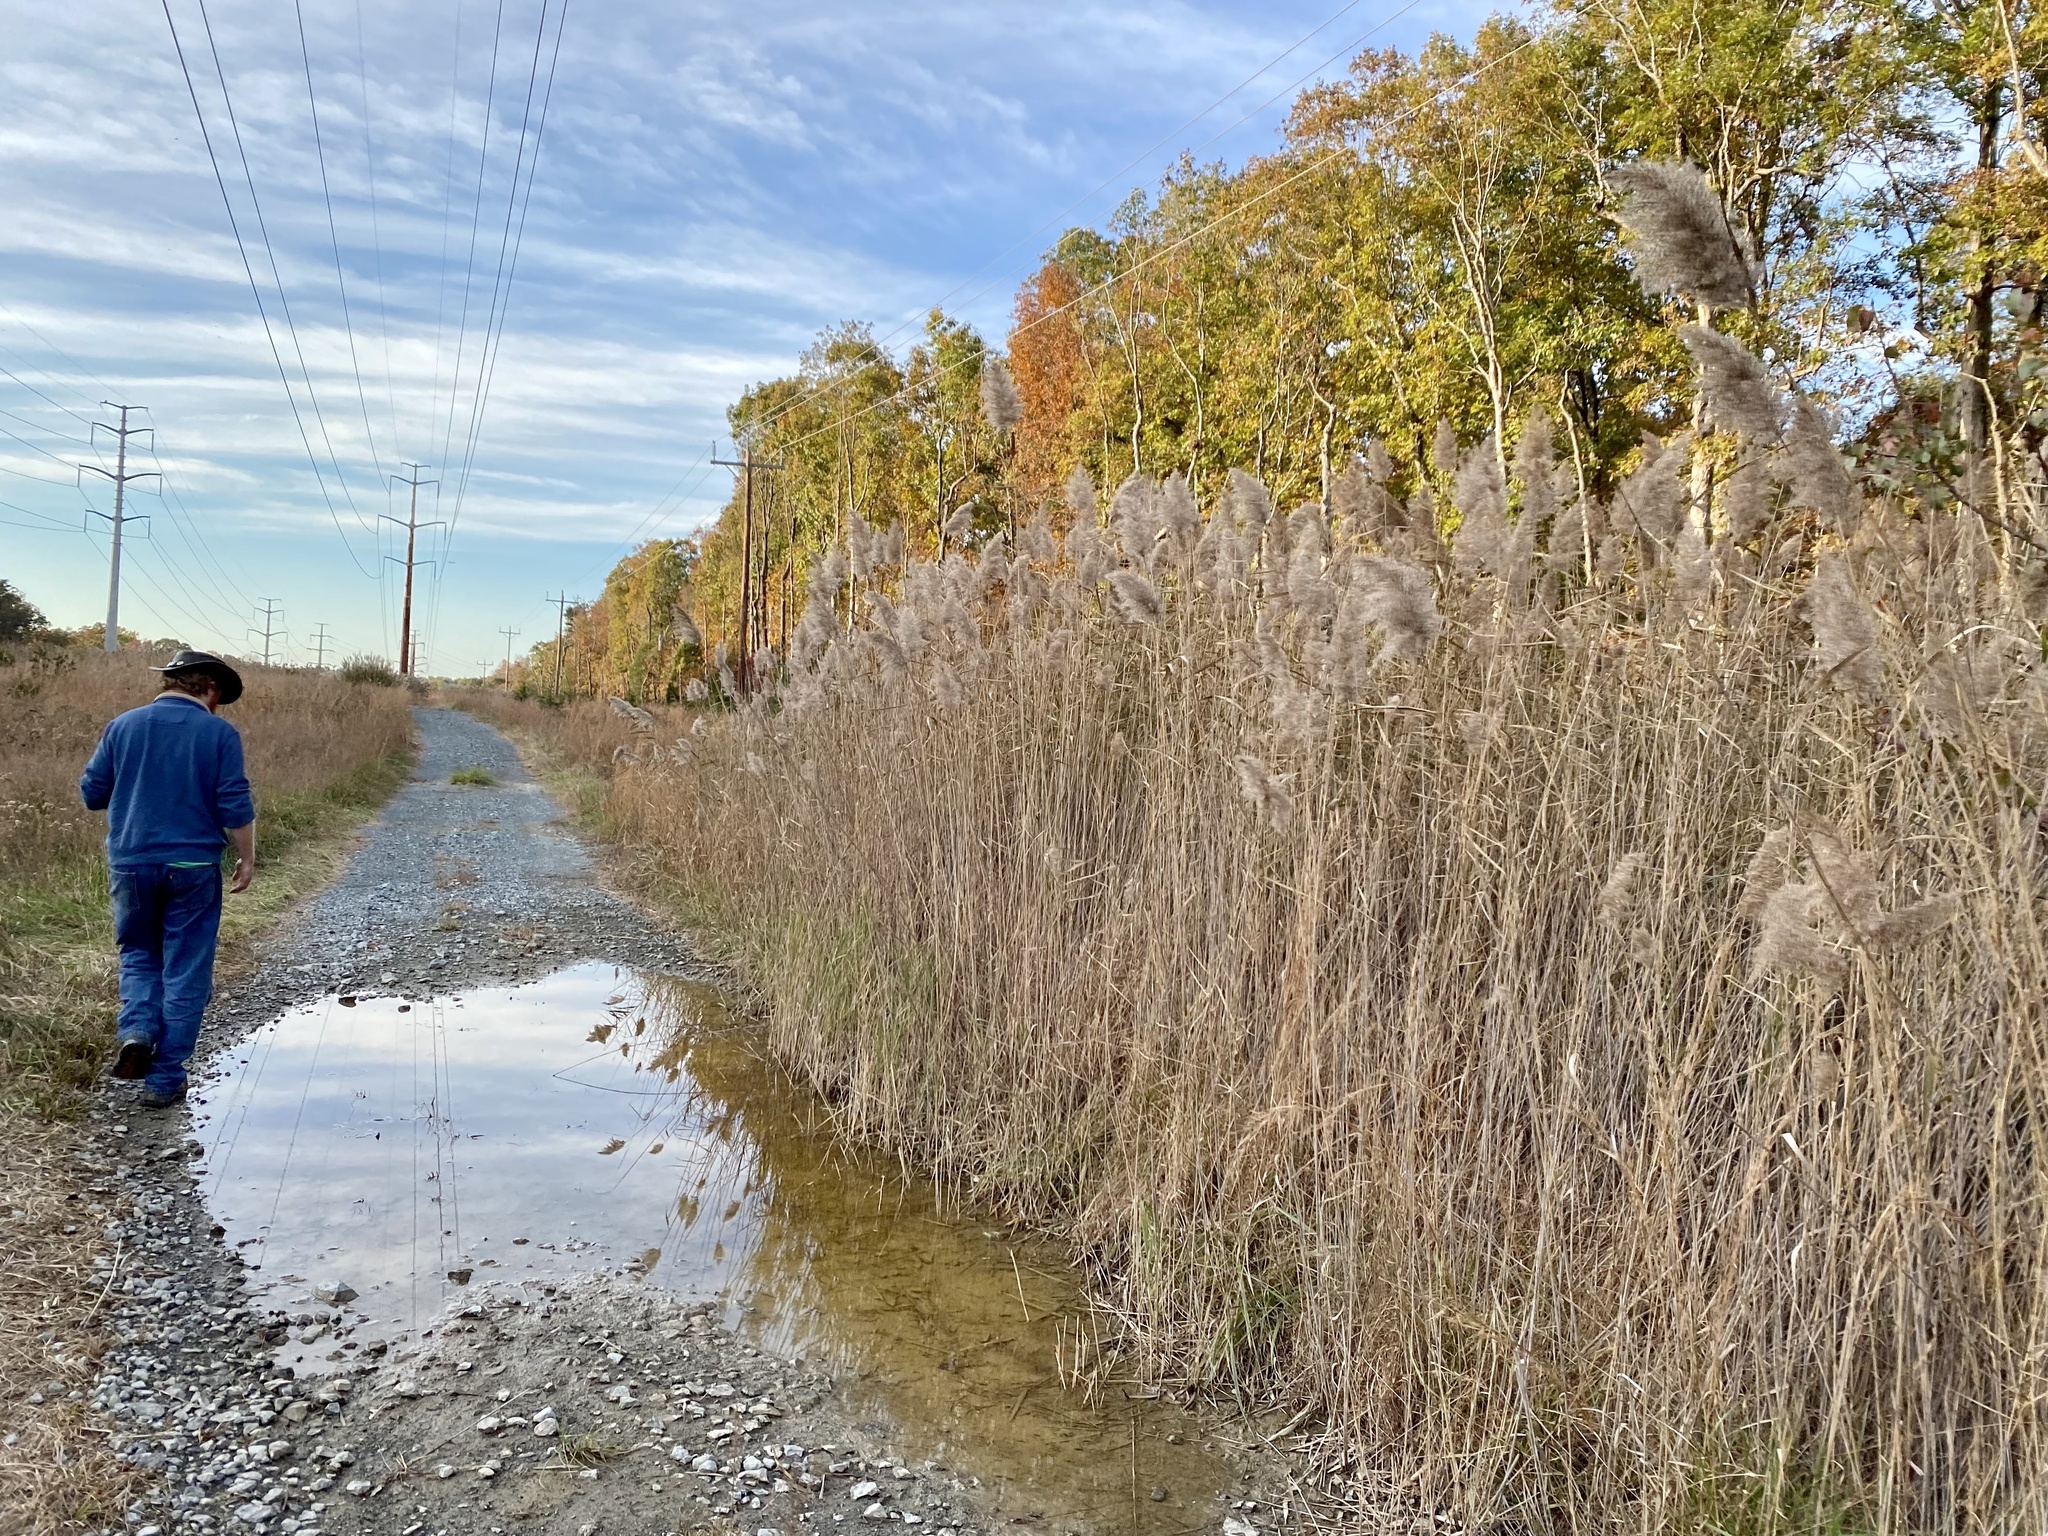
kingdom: Plantae
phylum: Tracheophyta
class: Liliopsida
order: Poales
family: Poaceae
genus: Phragmites
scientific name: Phragmites australis
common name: Common reed
